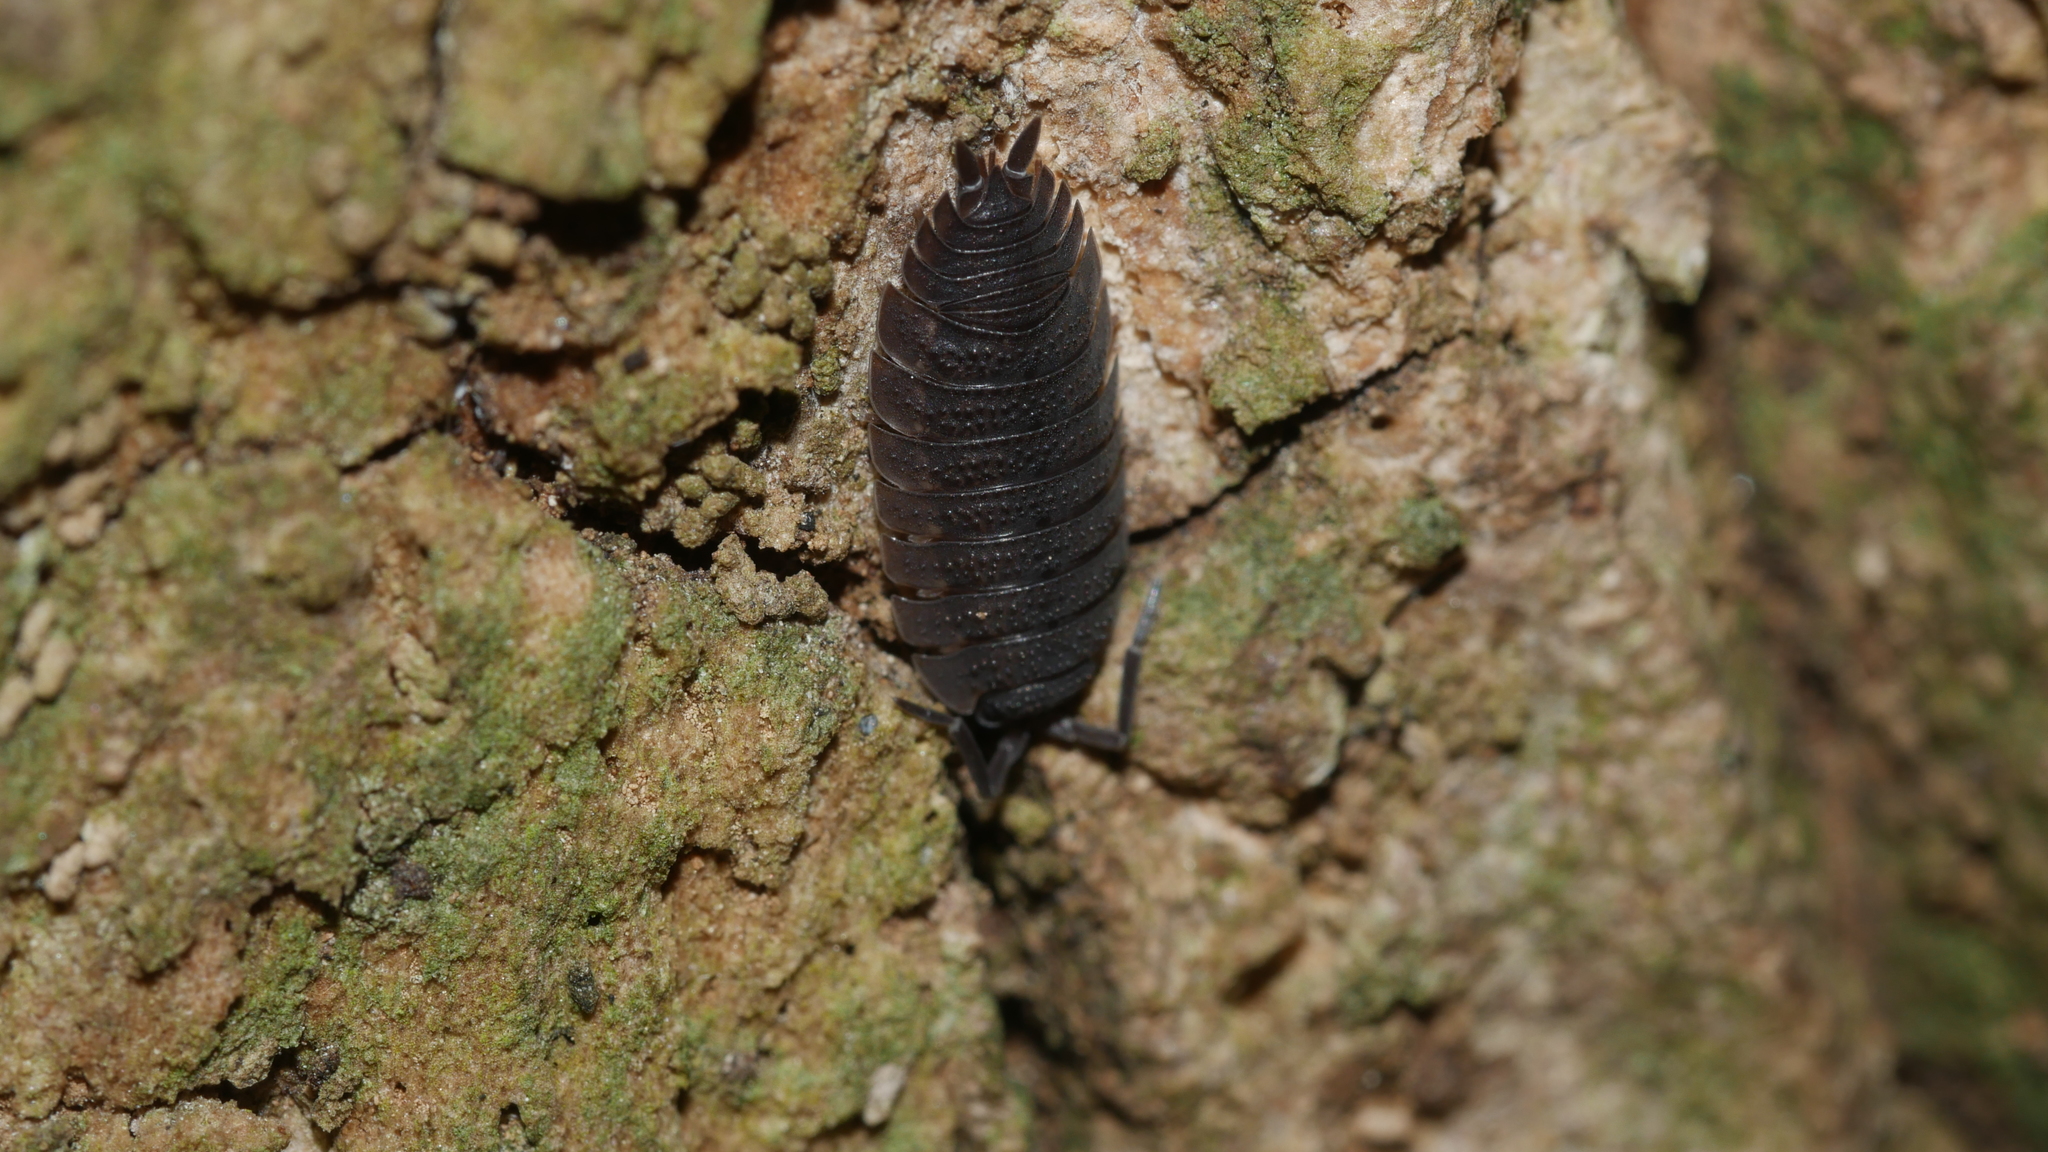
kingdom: Animalia
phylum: Arthropoda
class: Malacostraca
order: Isopoda
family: Porcellionidae
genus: Porcellio
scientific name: Porcellio scaber
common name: Common rough woodlouse
